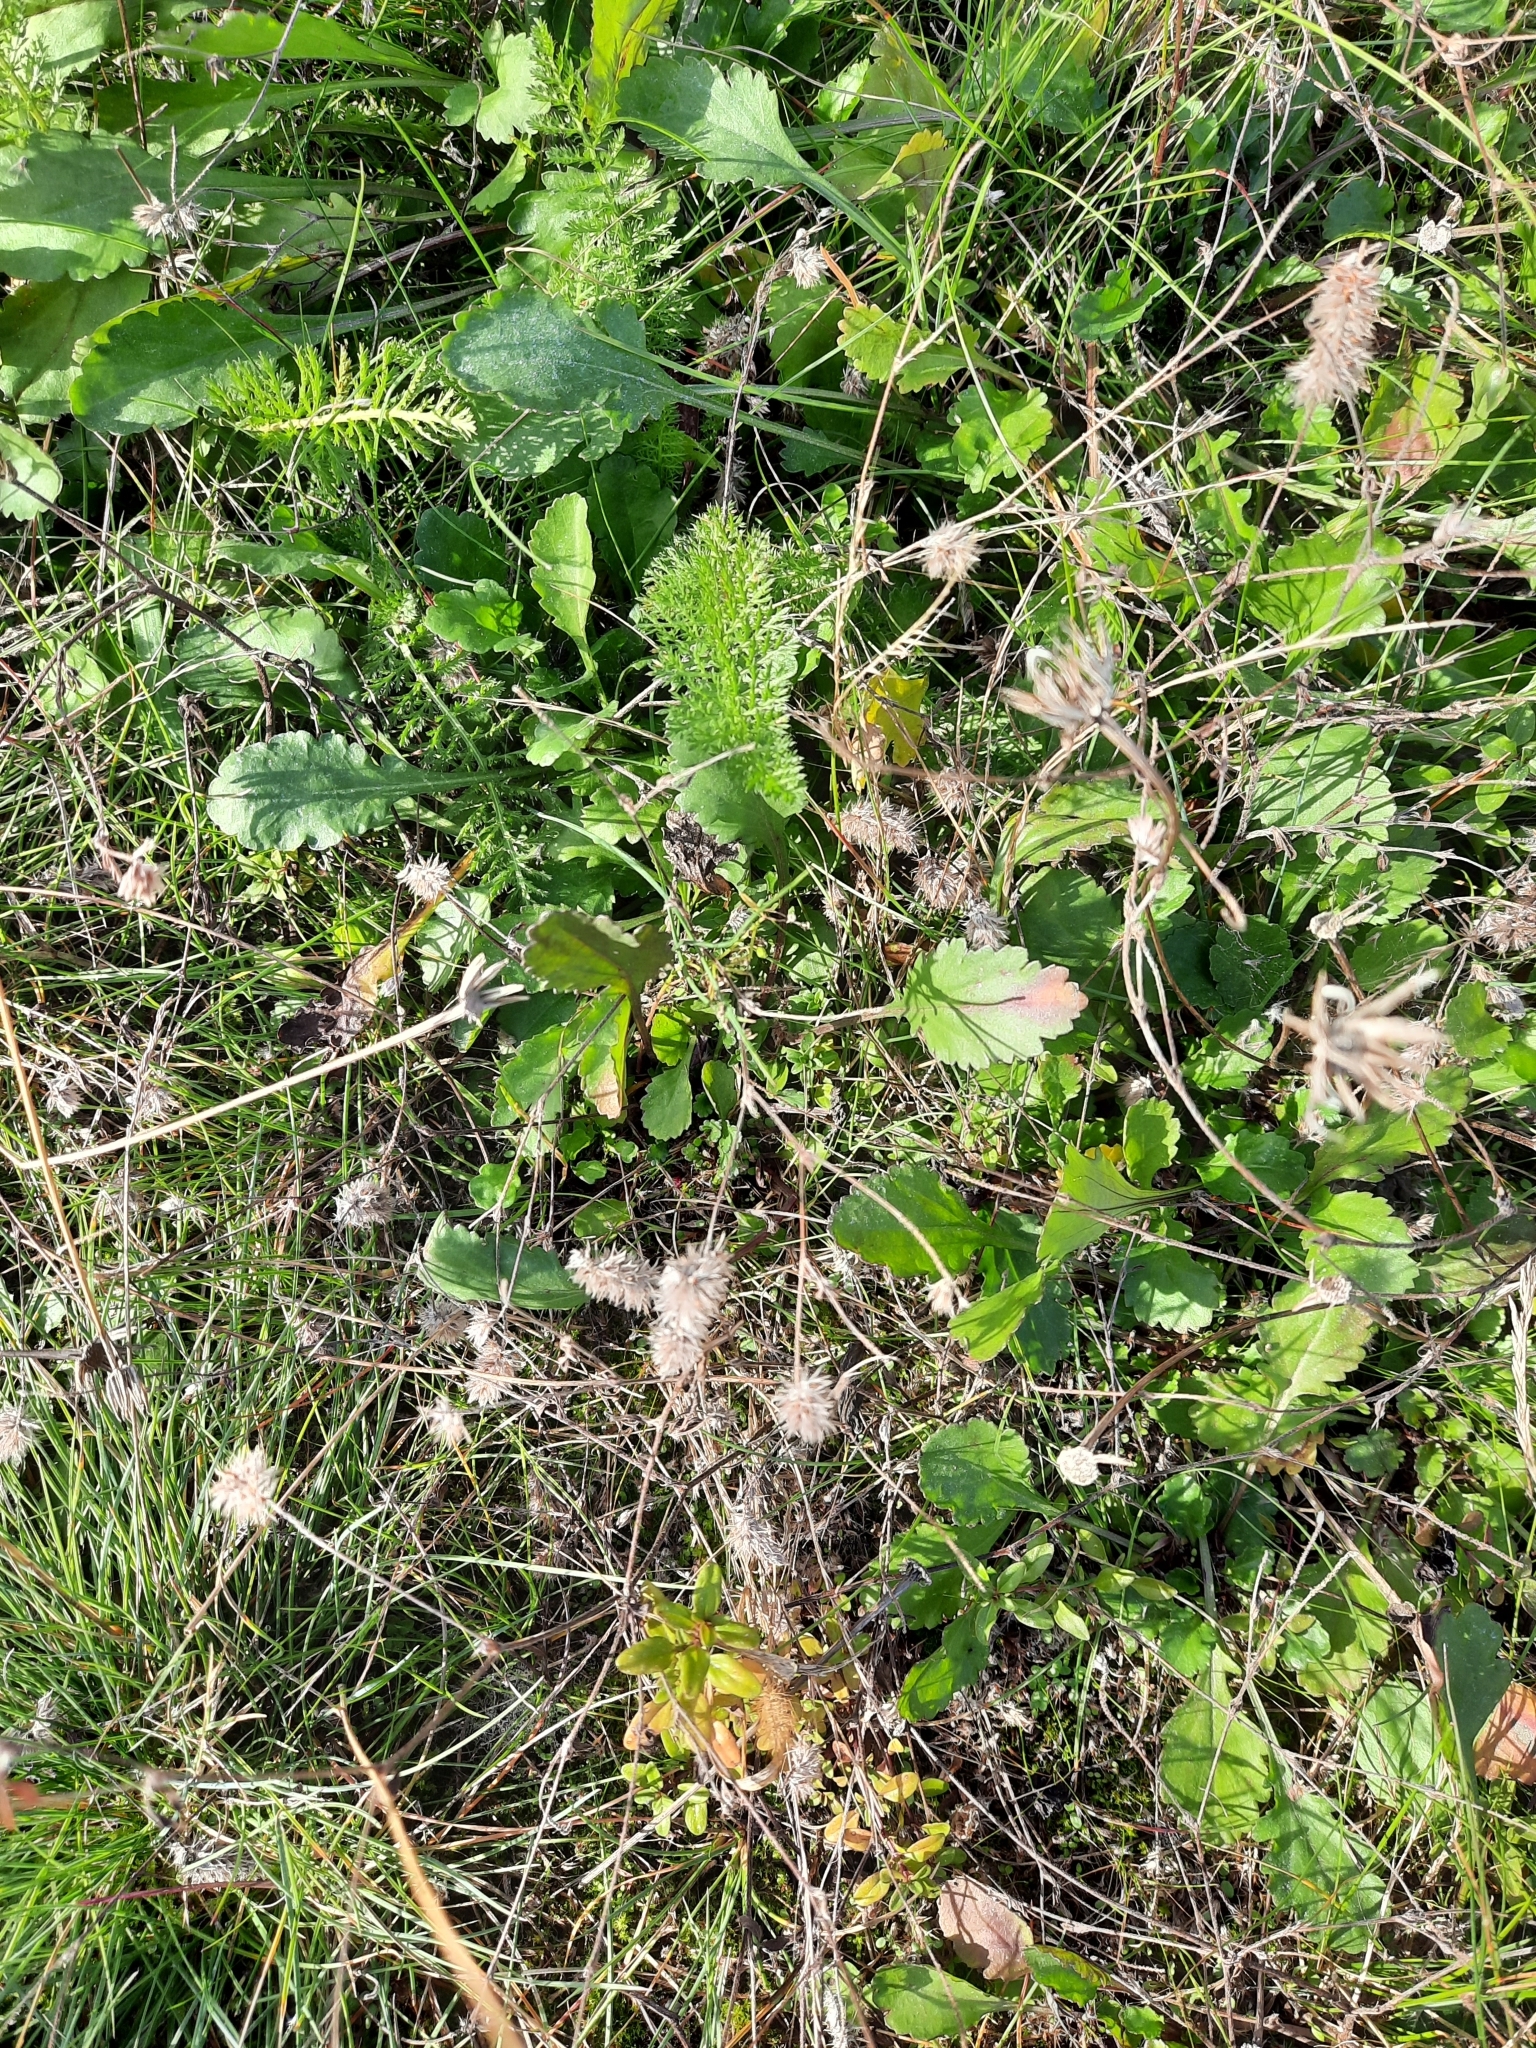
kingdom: Plantae
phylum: Tracheophyta
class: Magnoliopsida
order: Fabales
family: Fabaceae
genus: Trifolium
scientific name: Trifolium arvense
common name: Hare's-foot clover
